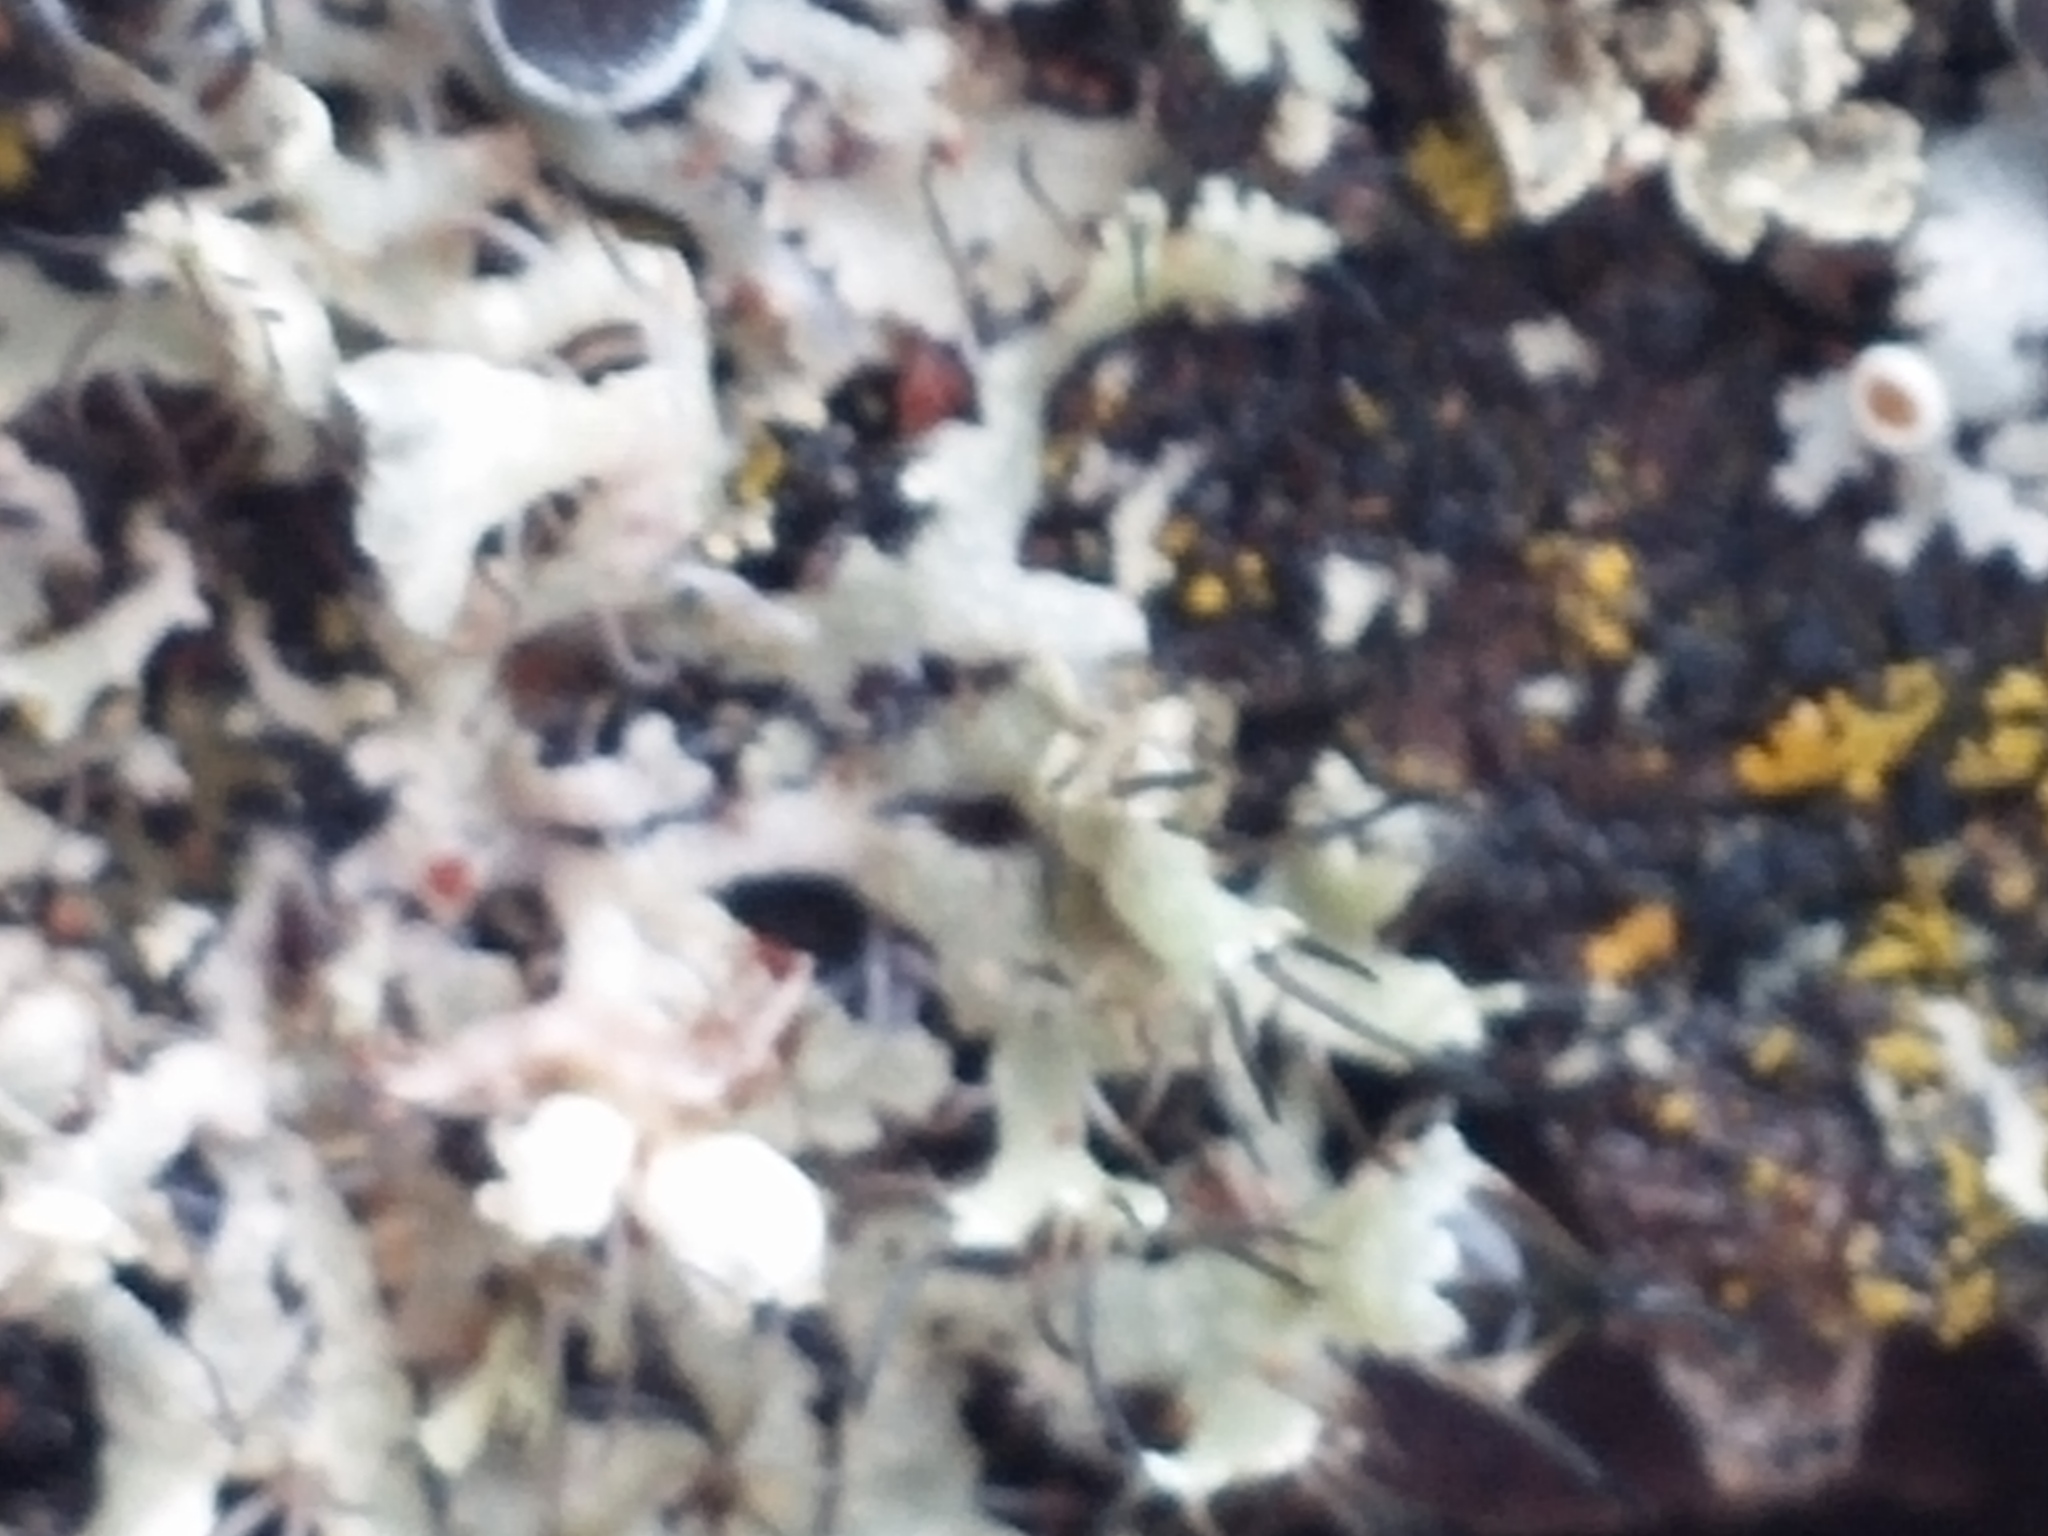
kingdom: Fungi
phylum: Ascomycota
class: Lecanoromycetes
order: Caliciales
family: Physciaceae
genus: Physcia
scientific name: Physcia adscendens
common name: Hooded rosette lichen
